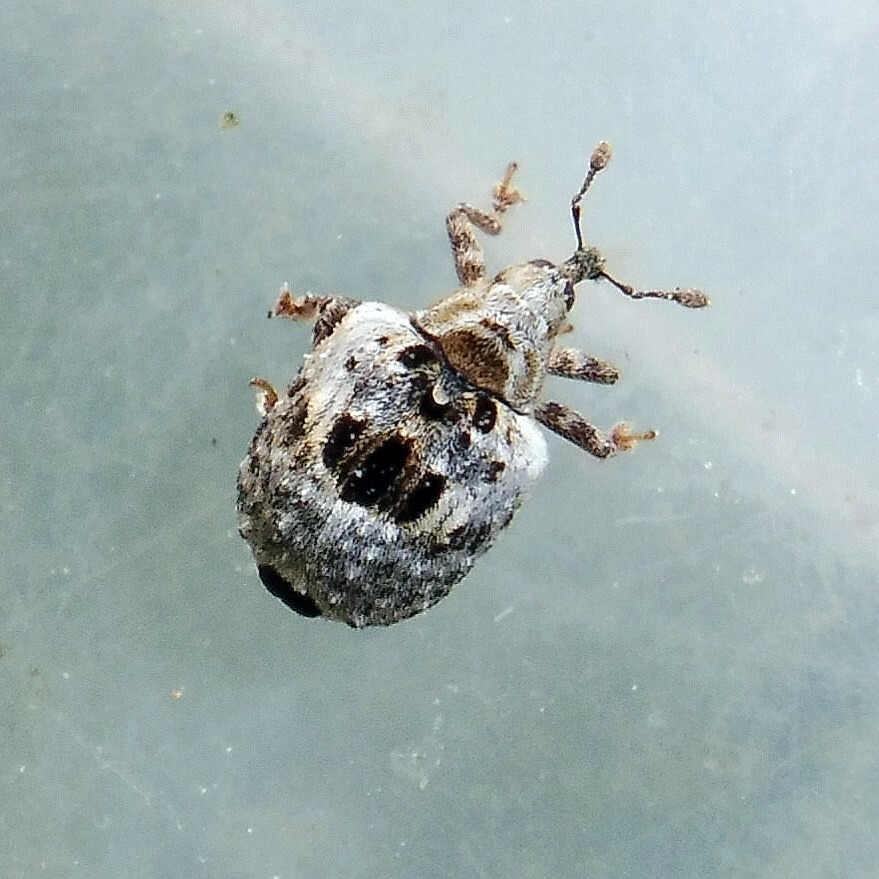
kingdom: Animalia
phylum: Arthropoda
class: Insecta
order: Coleoptera
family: Curculionidae
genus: Cionus
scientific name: Cionus alauda
